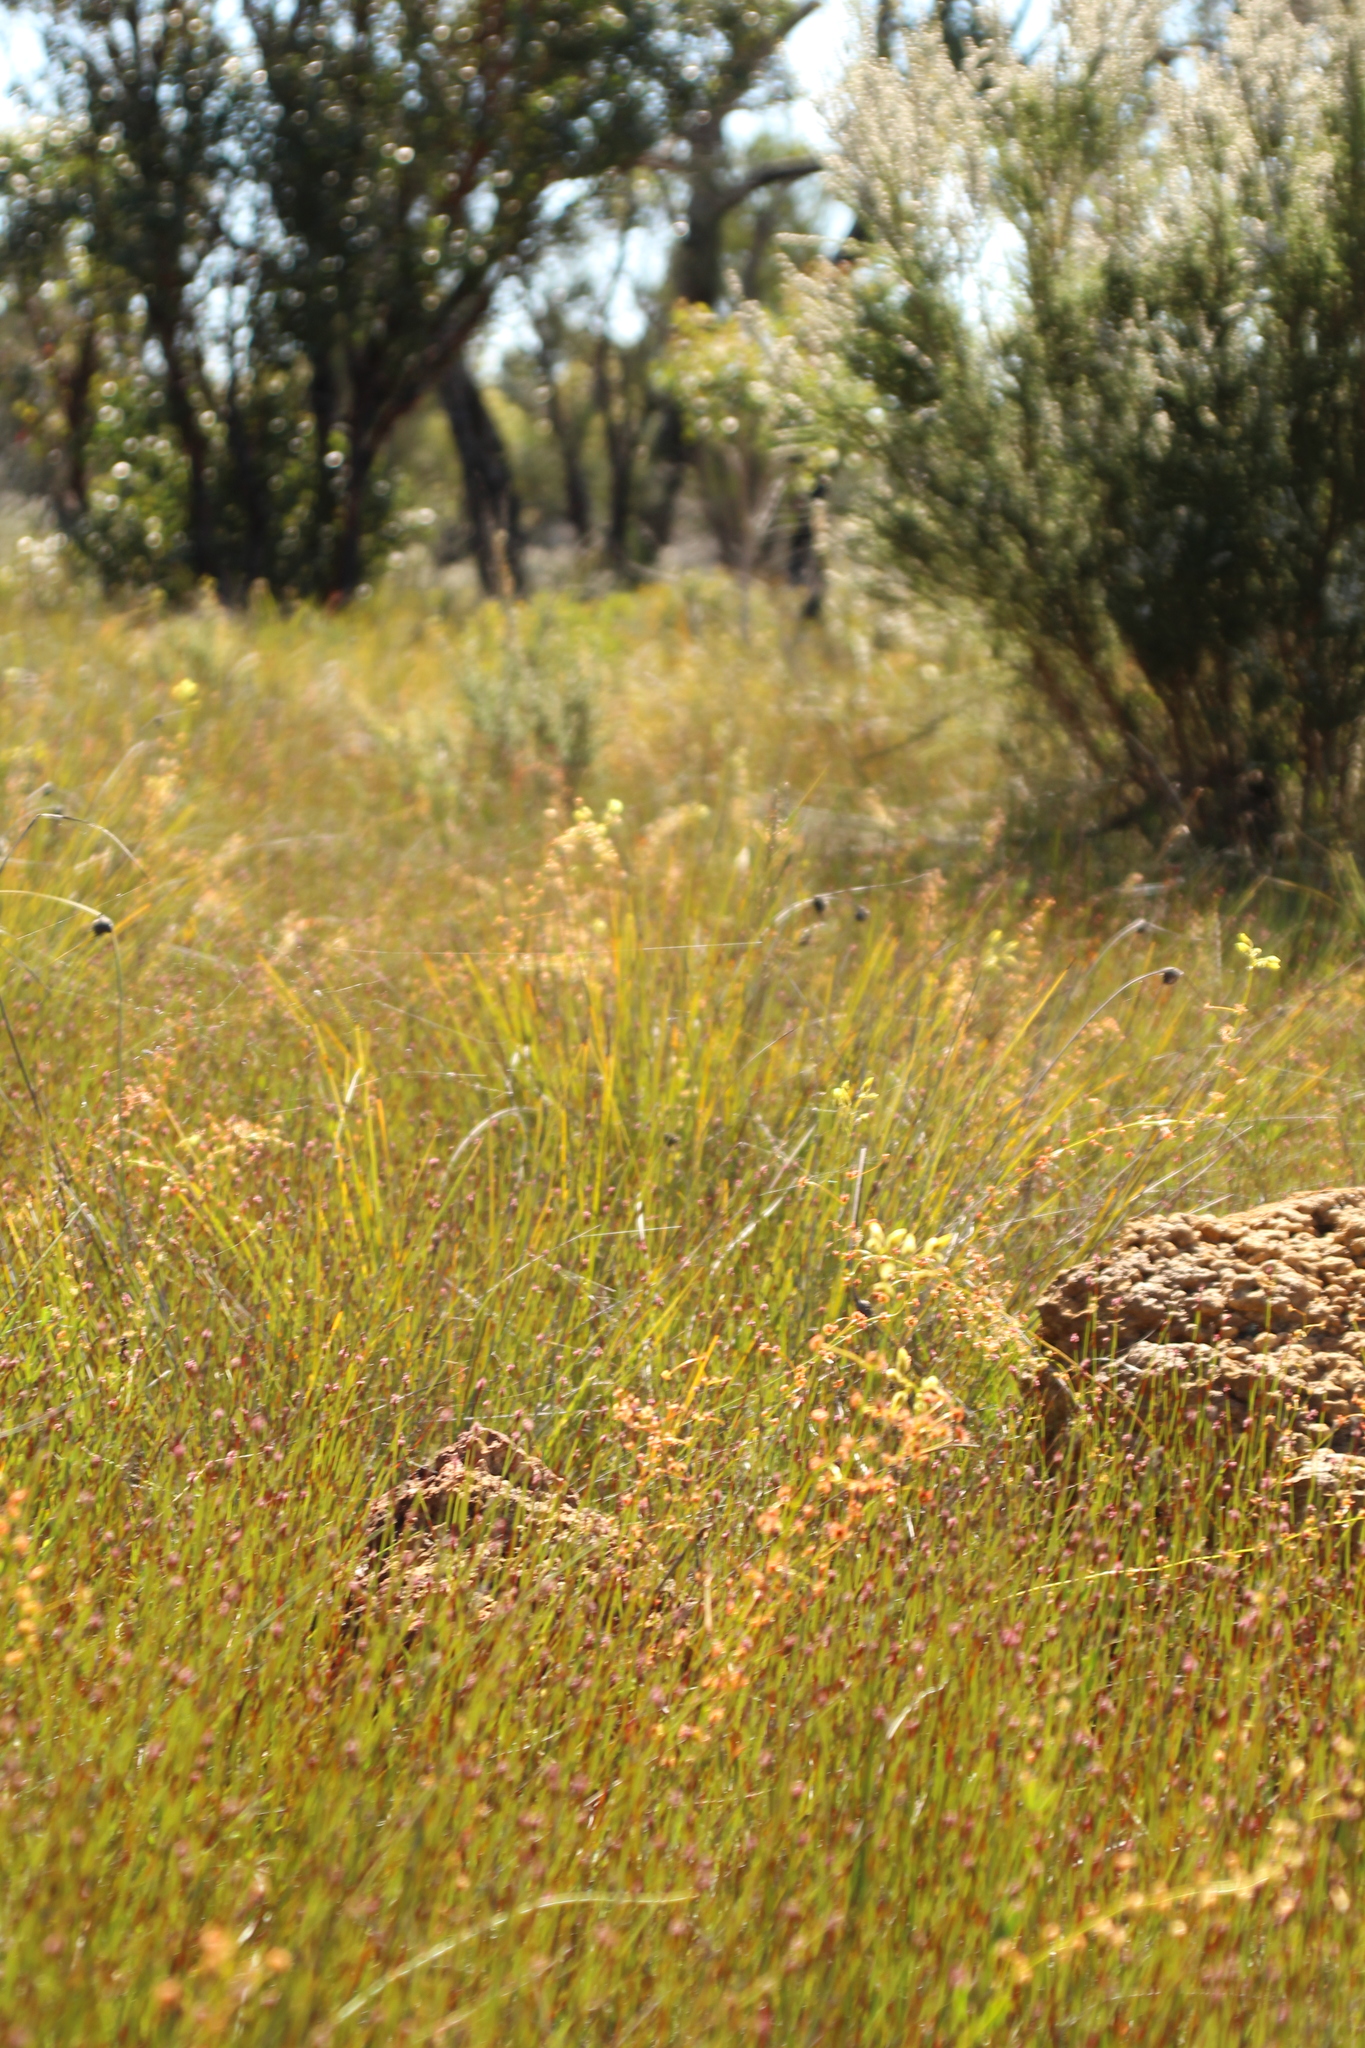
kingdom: Plantae
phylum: Tracheophyta
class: Magnoliopsida
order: Caryophyllales
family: Droseraceae
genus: Drosera
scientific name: Drosera sulphurea
